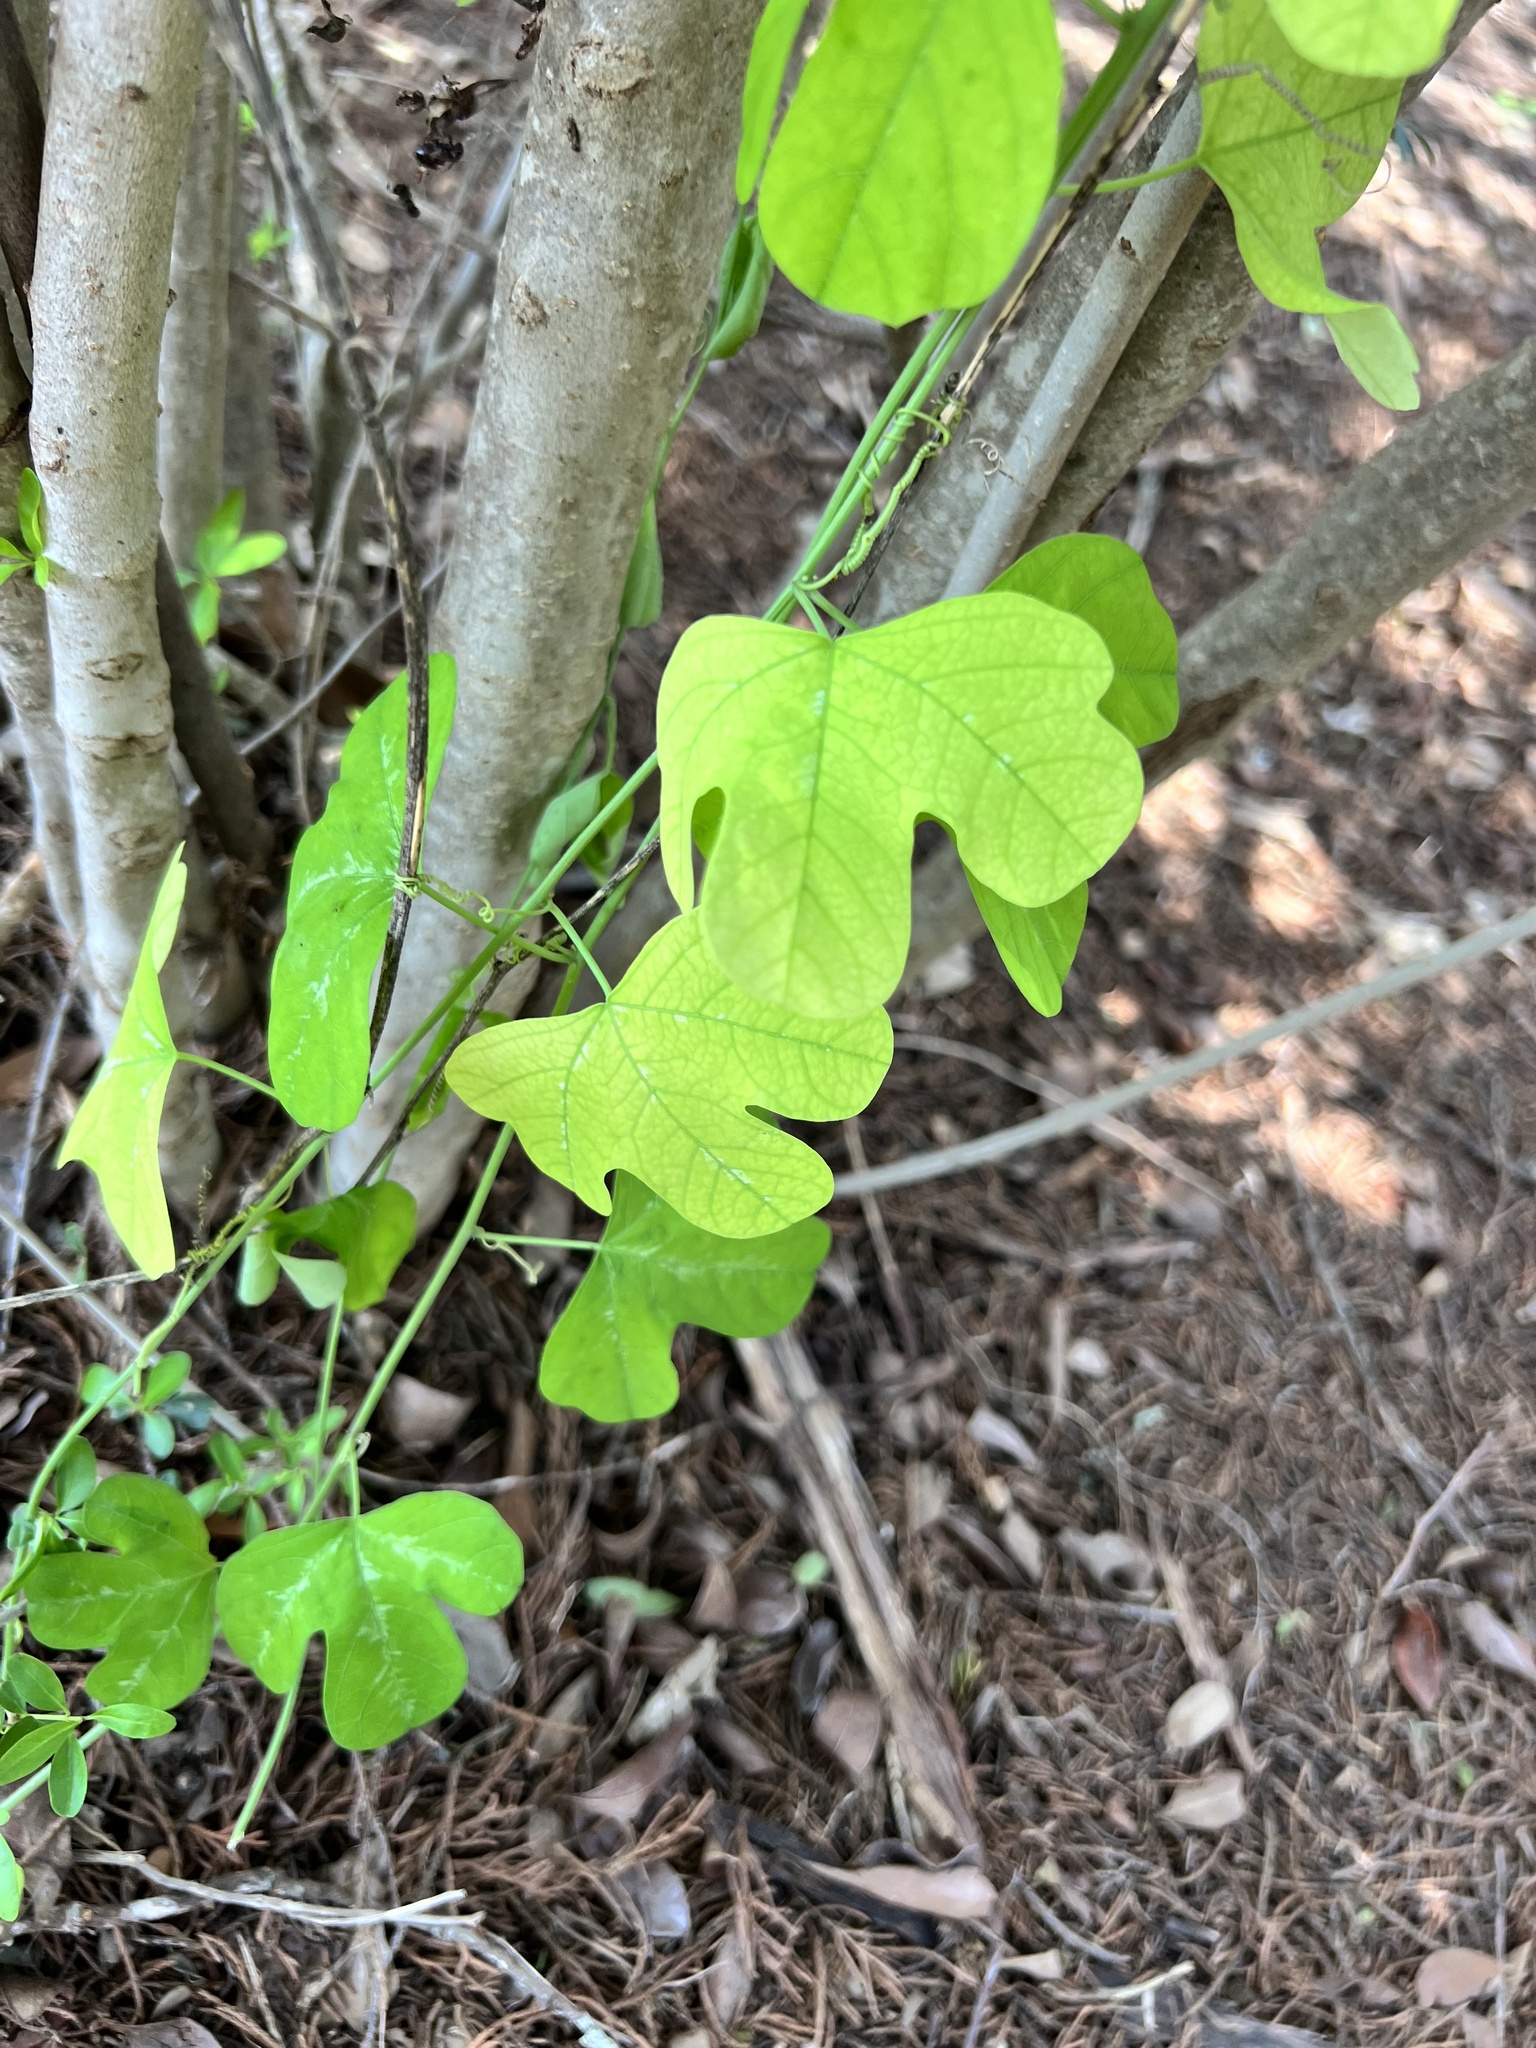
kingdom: Plantae
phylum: Tracheophyta
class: Magnoliopsida
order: Malpighiales
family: Passifloraceae
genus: Passiflora
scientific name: Passiflora affinis
